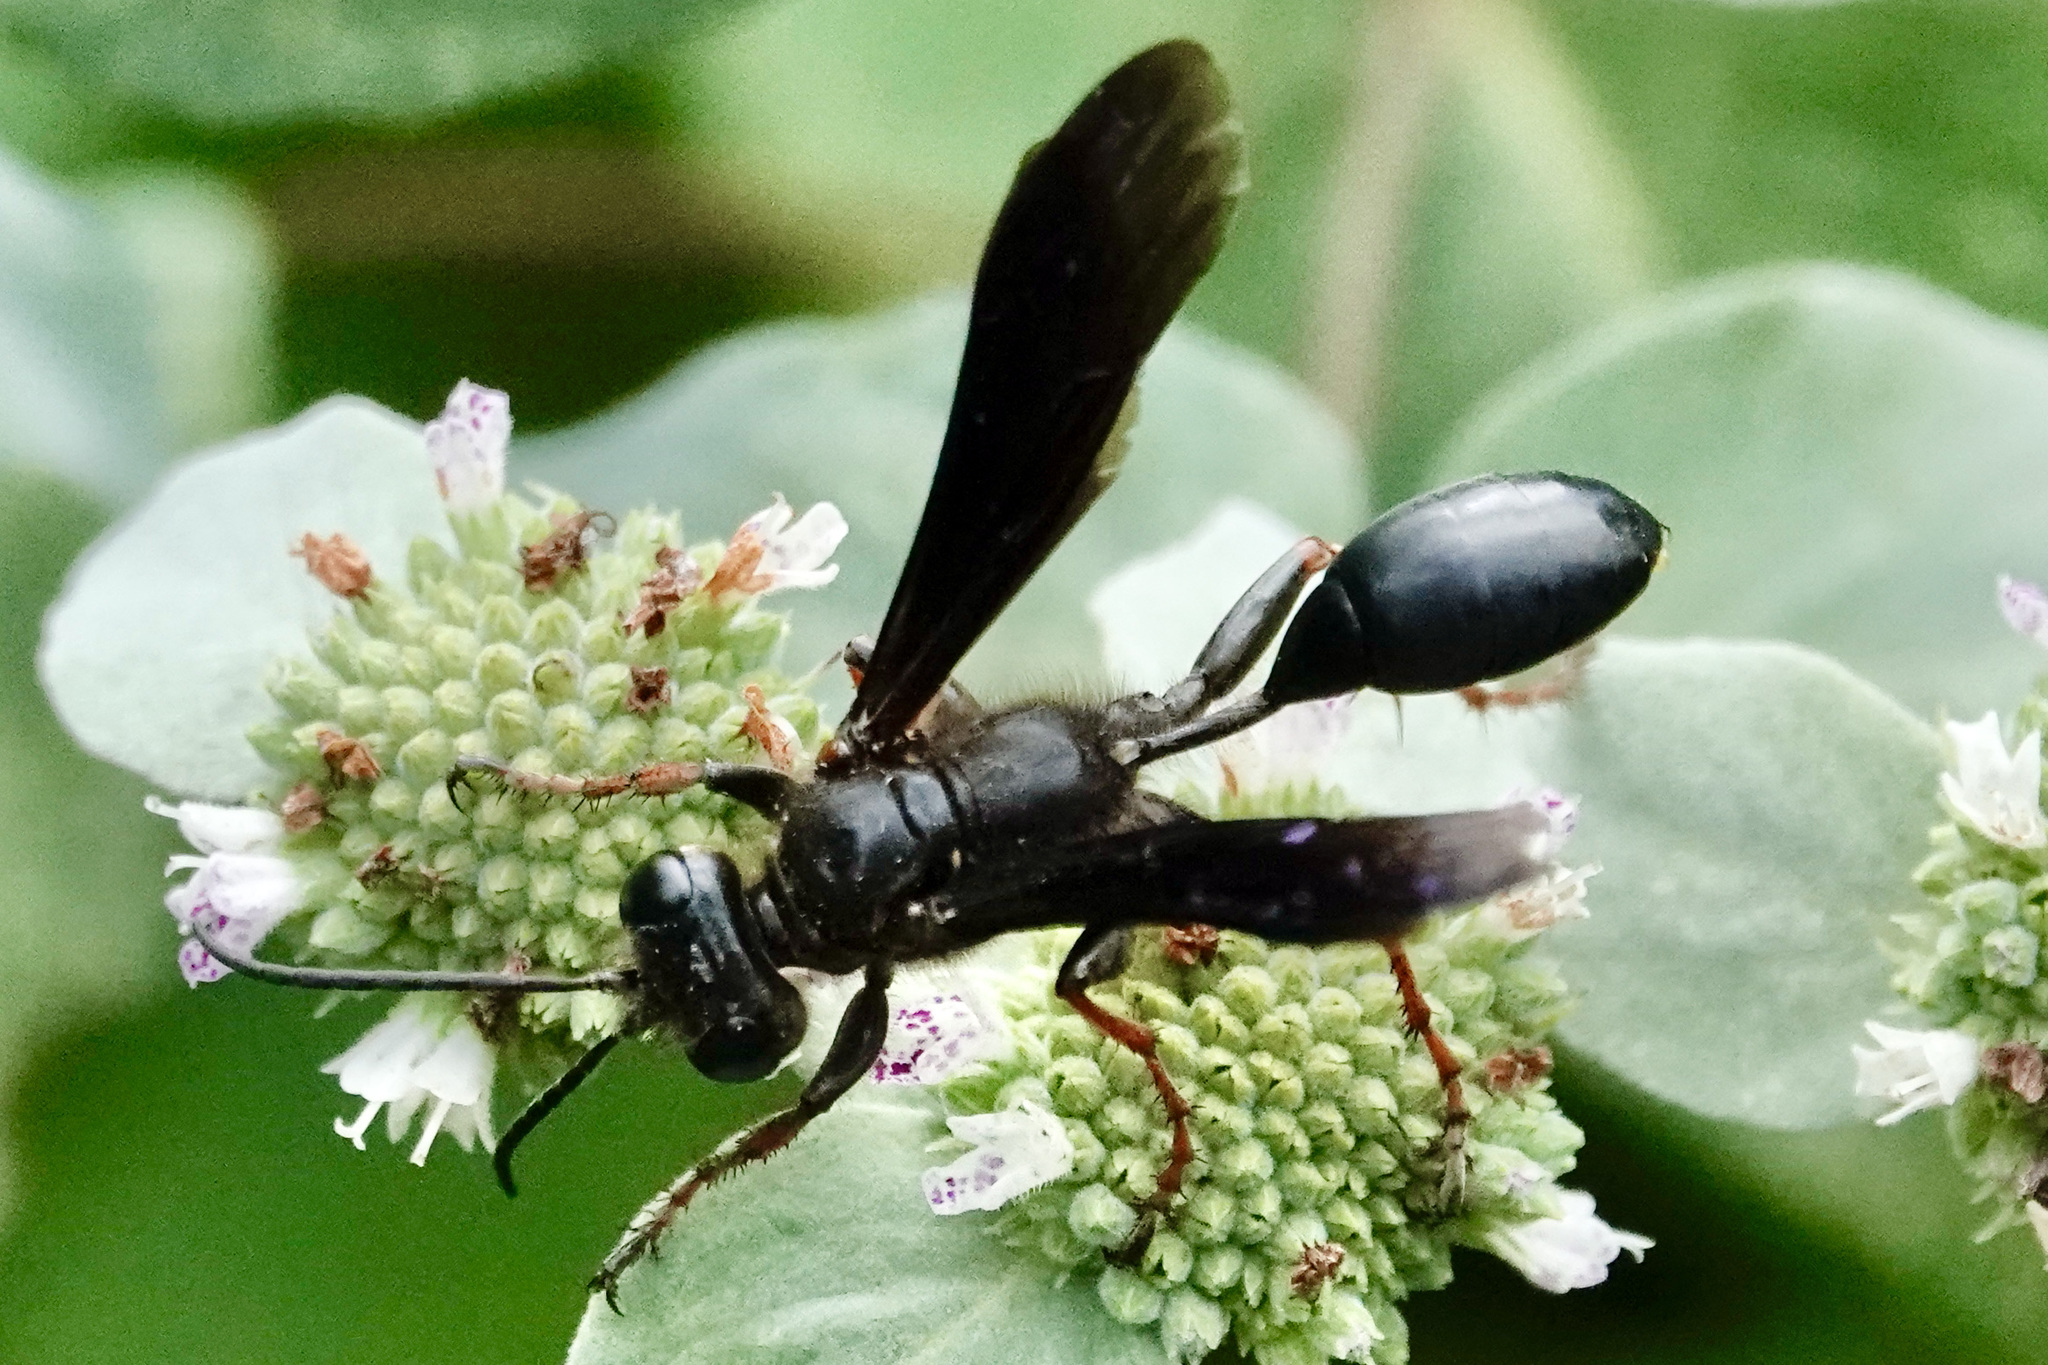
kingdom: Animalia
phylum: Arthropoda
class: Insecta
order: Hymenoptera
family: Sphecidae
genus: Isodontia
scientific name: Isodontia auripes
